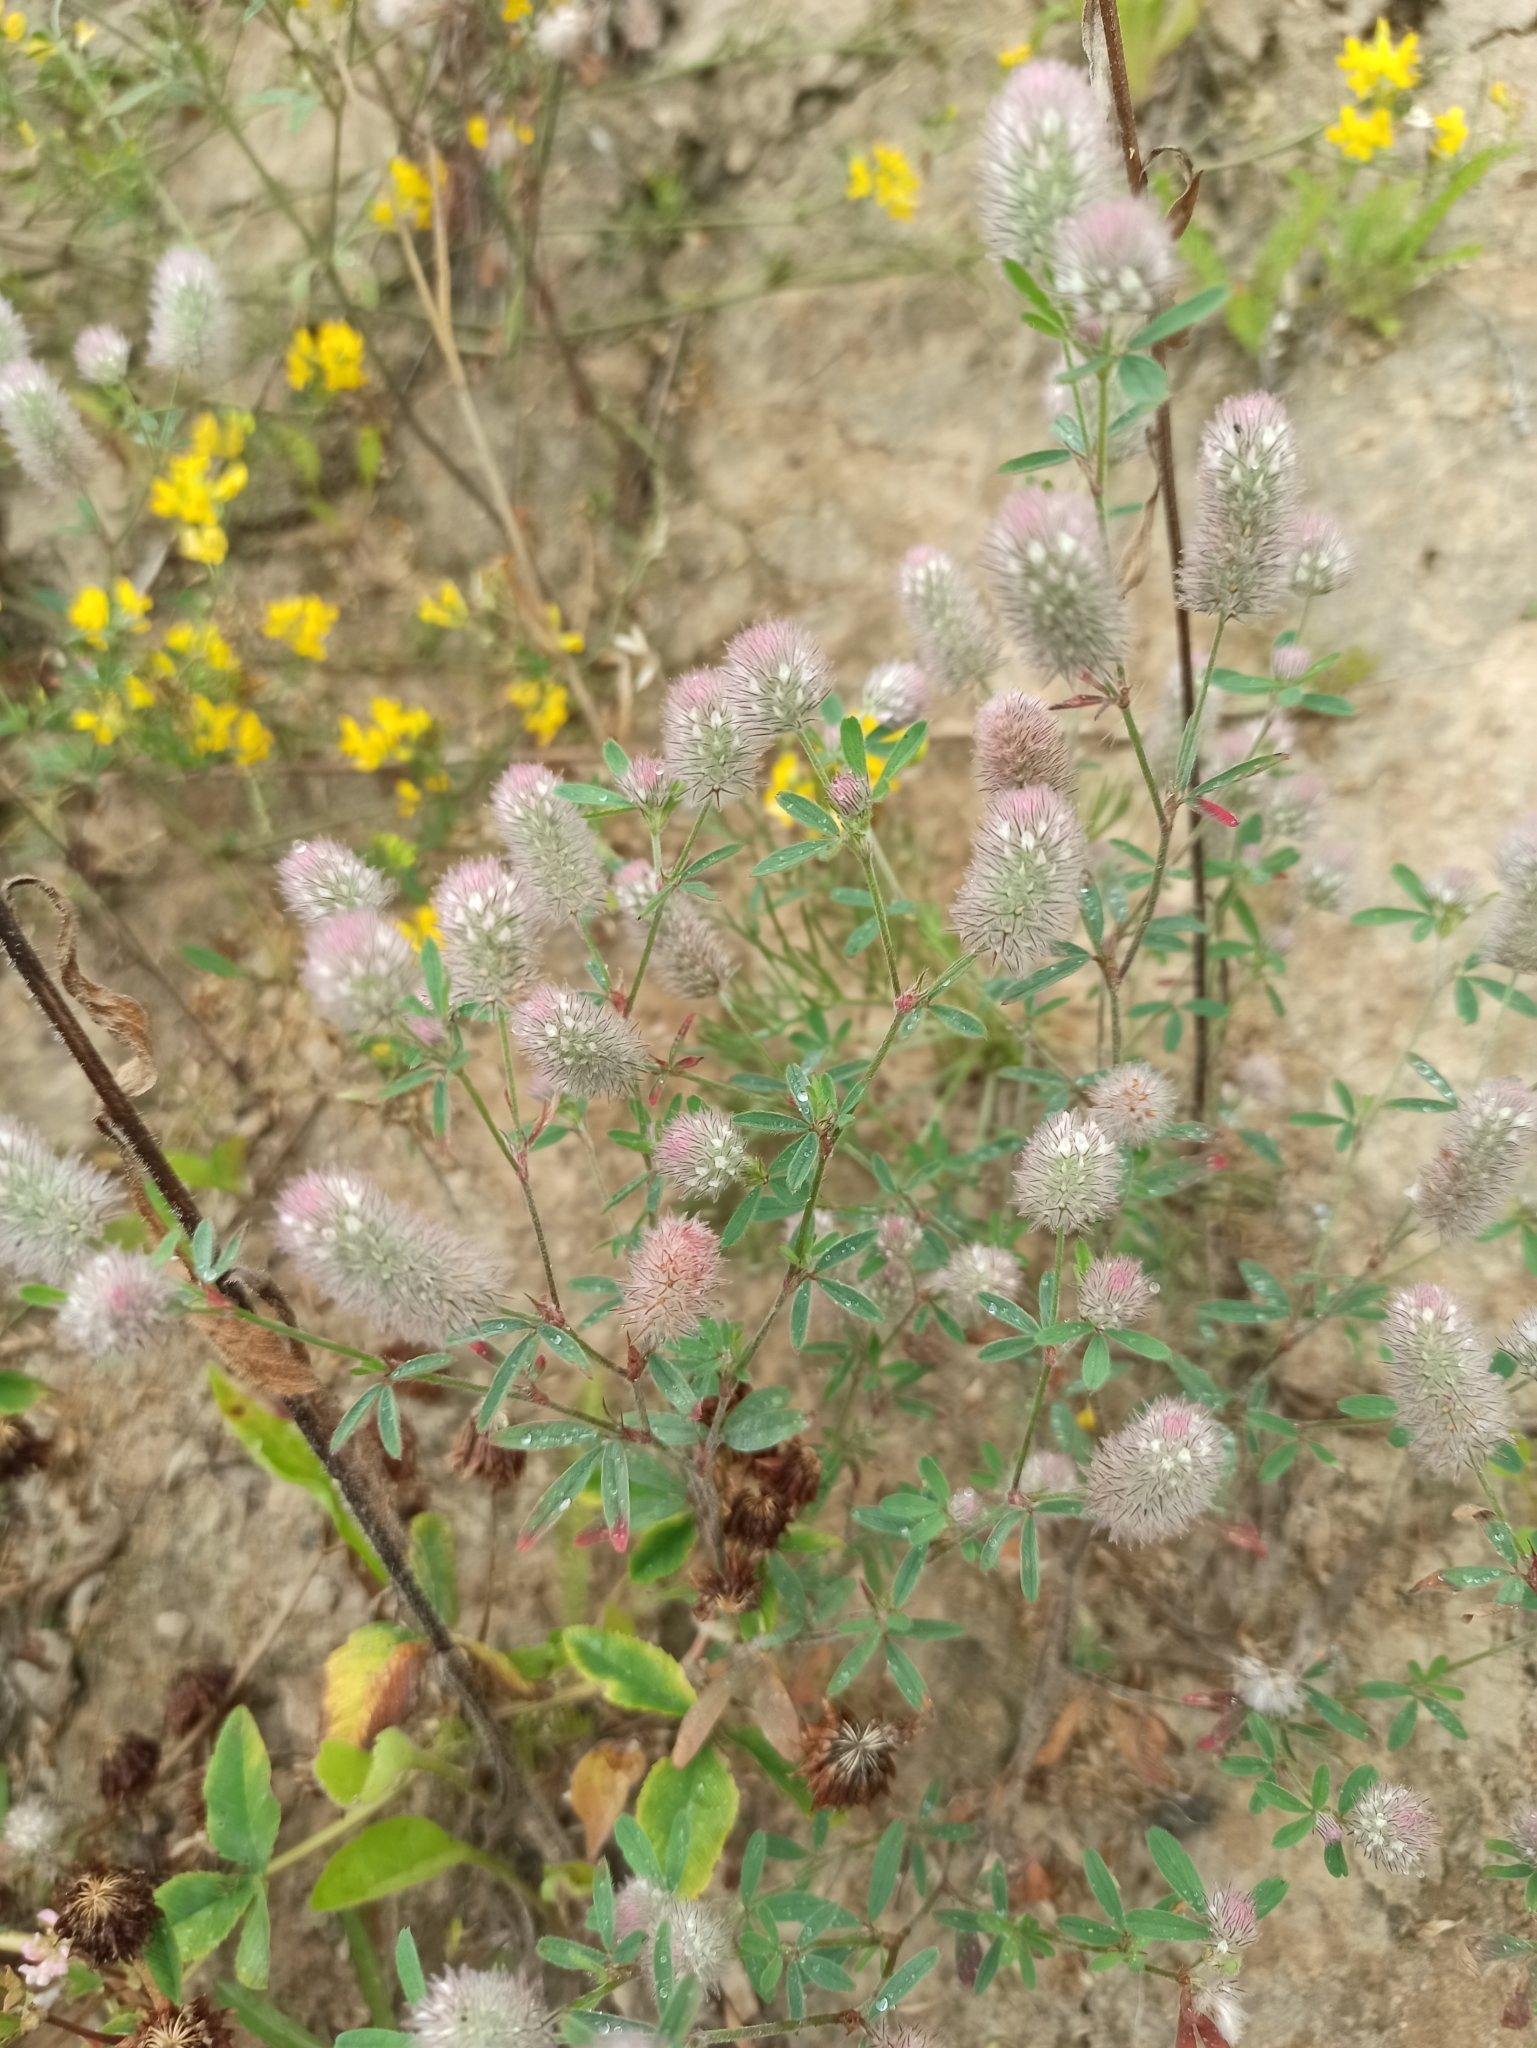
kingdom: Plantae
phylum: Tracheophyta
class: Magnoliopsida
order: Fabales
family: Fabaceae
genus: Trifolium
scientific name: Trifolium arvense
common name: Hare's-foot clover
